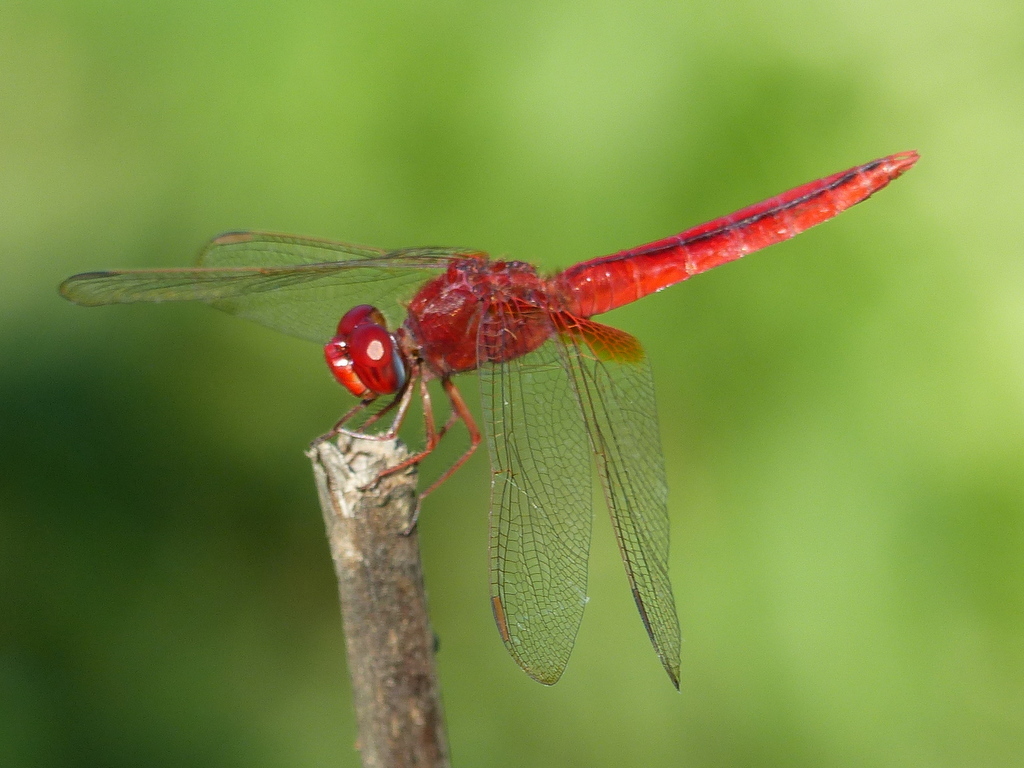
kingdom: Animalia
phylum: Arthropoda
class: Insecta
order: Odonata
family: Libellulidae
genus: Crocothemis
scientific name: Crocothemis servilia
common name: Scarlet skimmer
